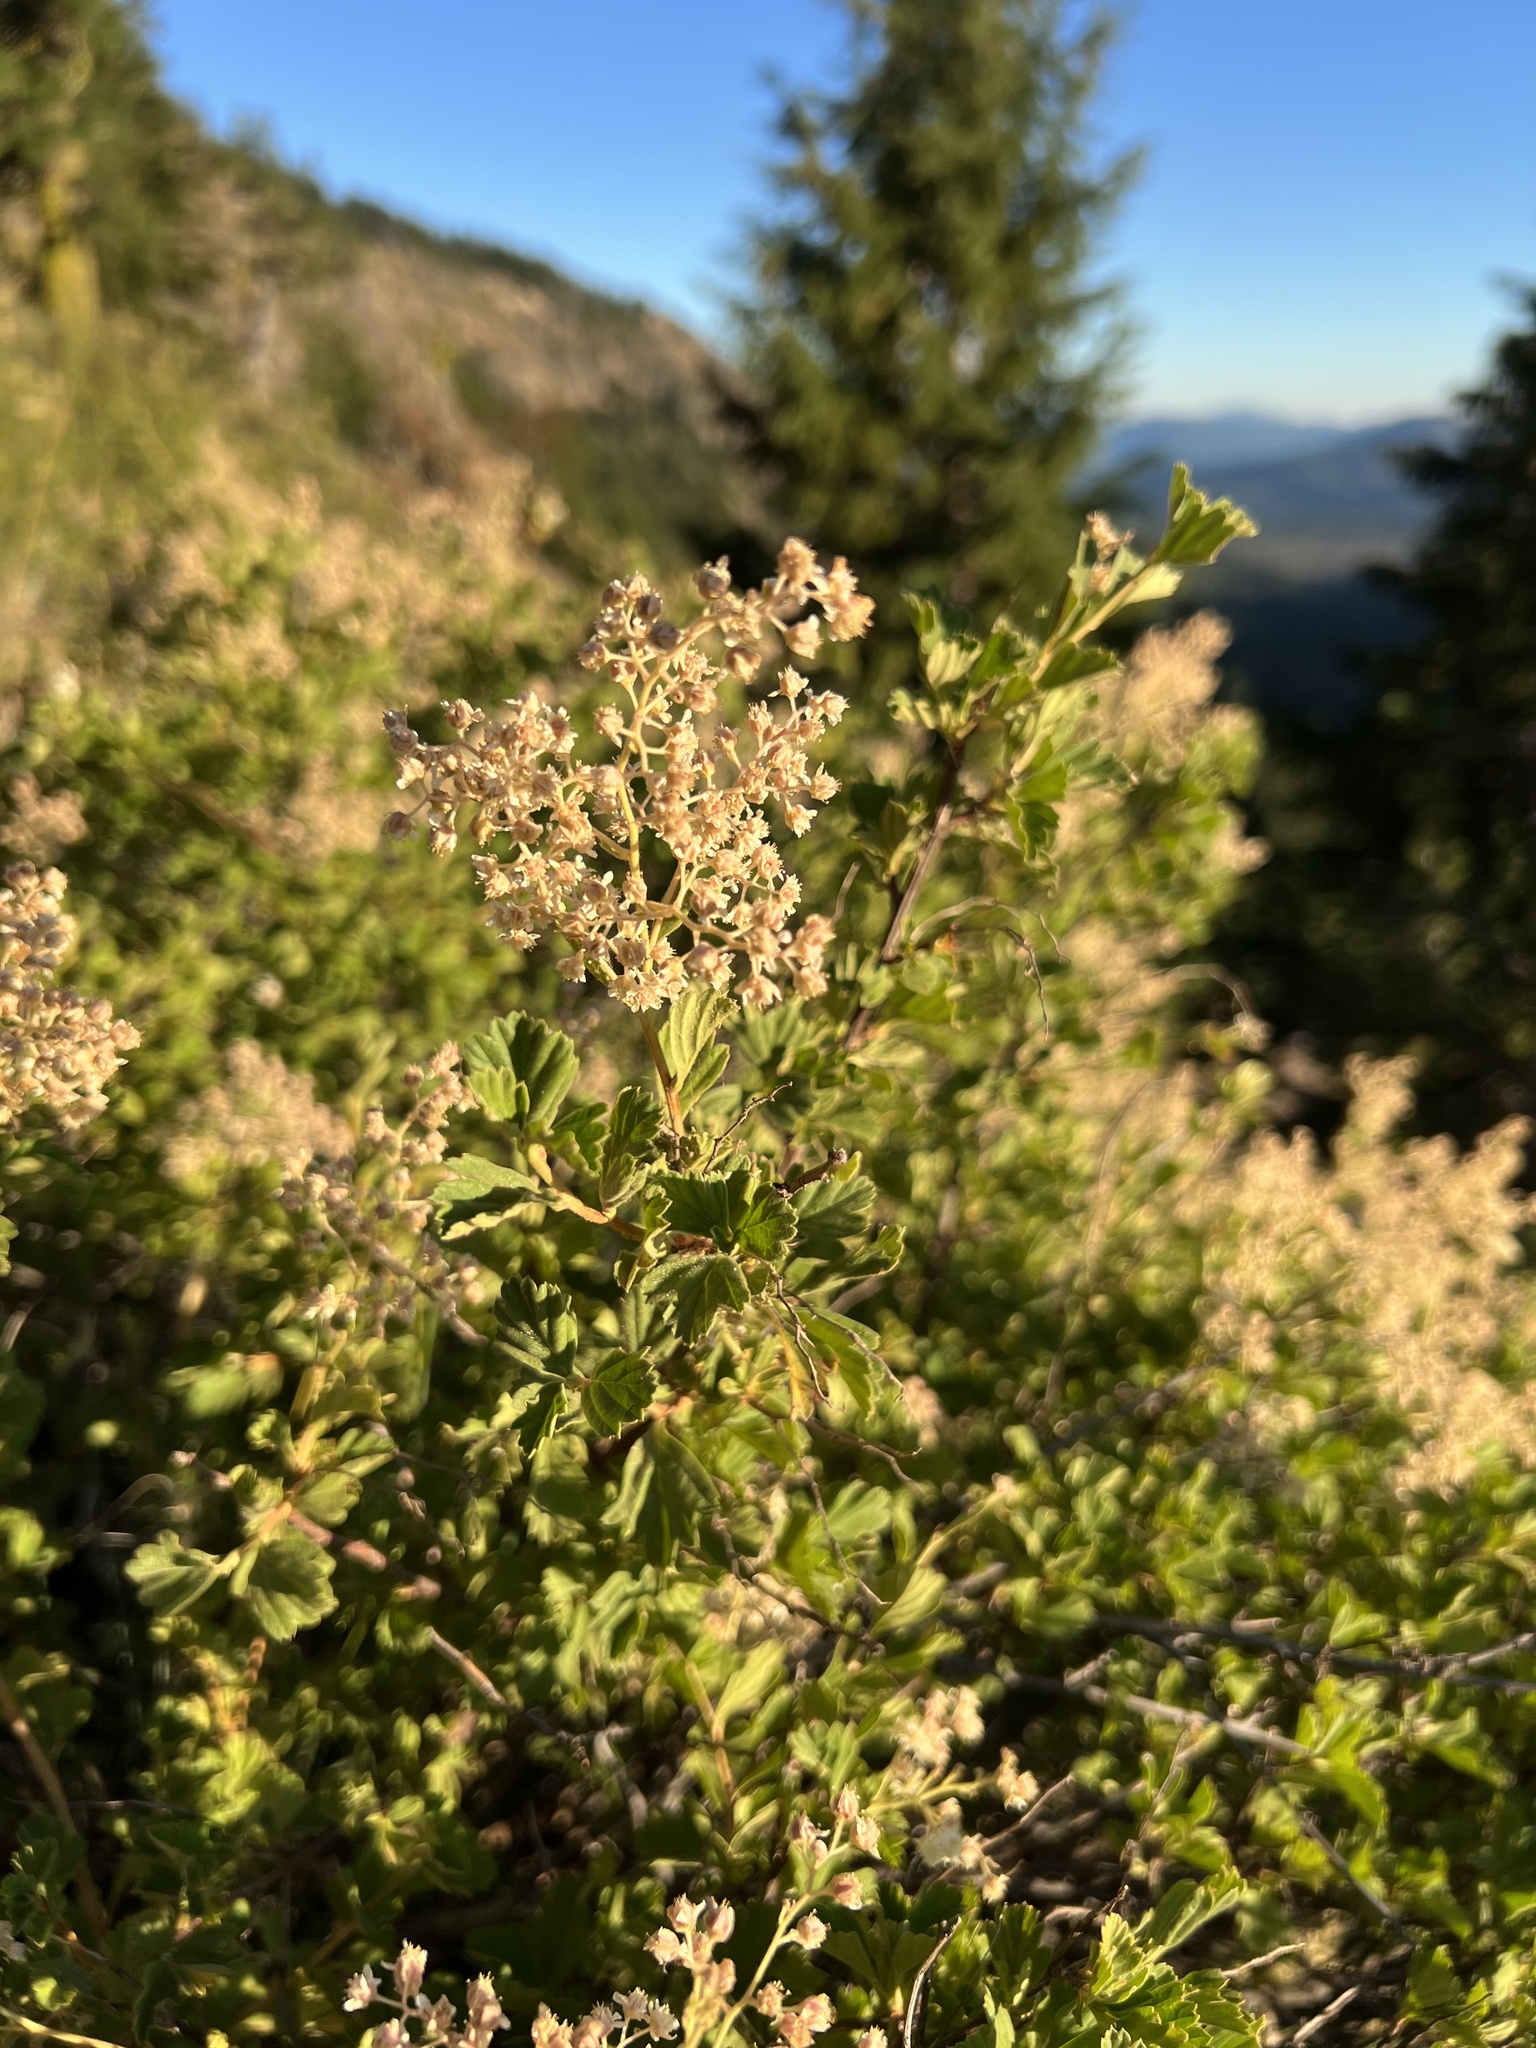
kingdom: Plantae
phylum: Tracheophyta
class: Magnoliopsida
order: Rosales
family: Rosaceae
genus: Holodiscus
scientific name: Holodiscus discolor
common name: Oceanspray
